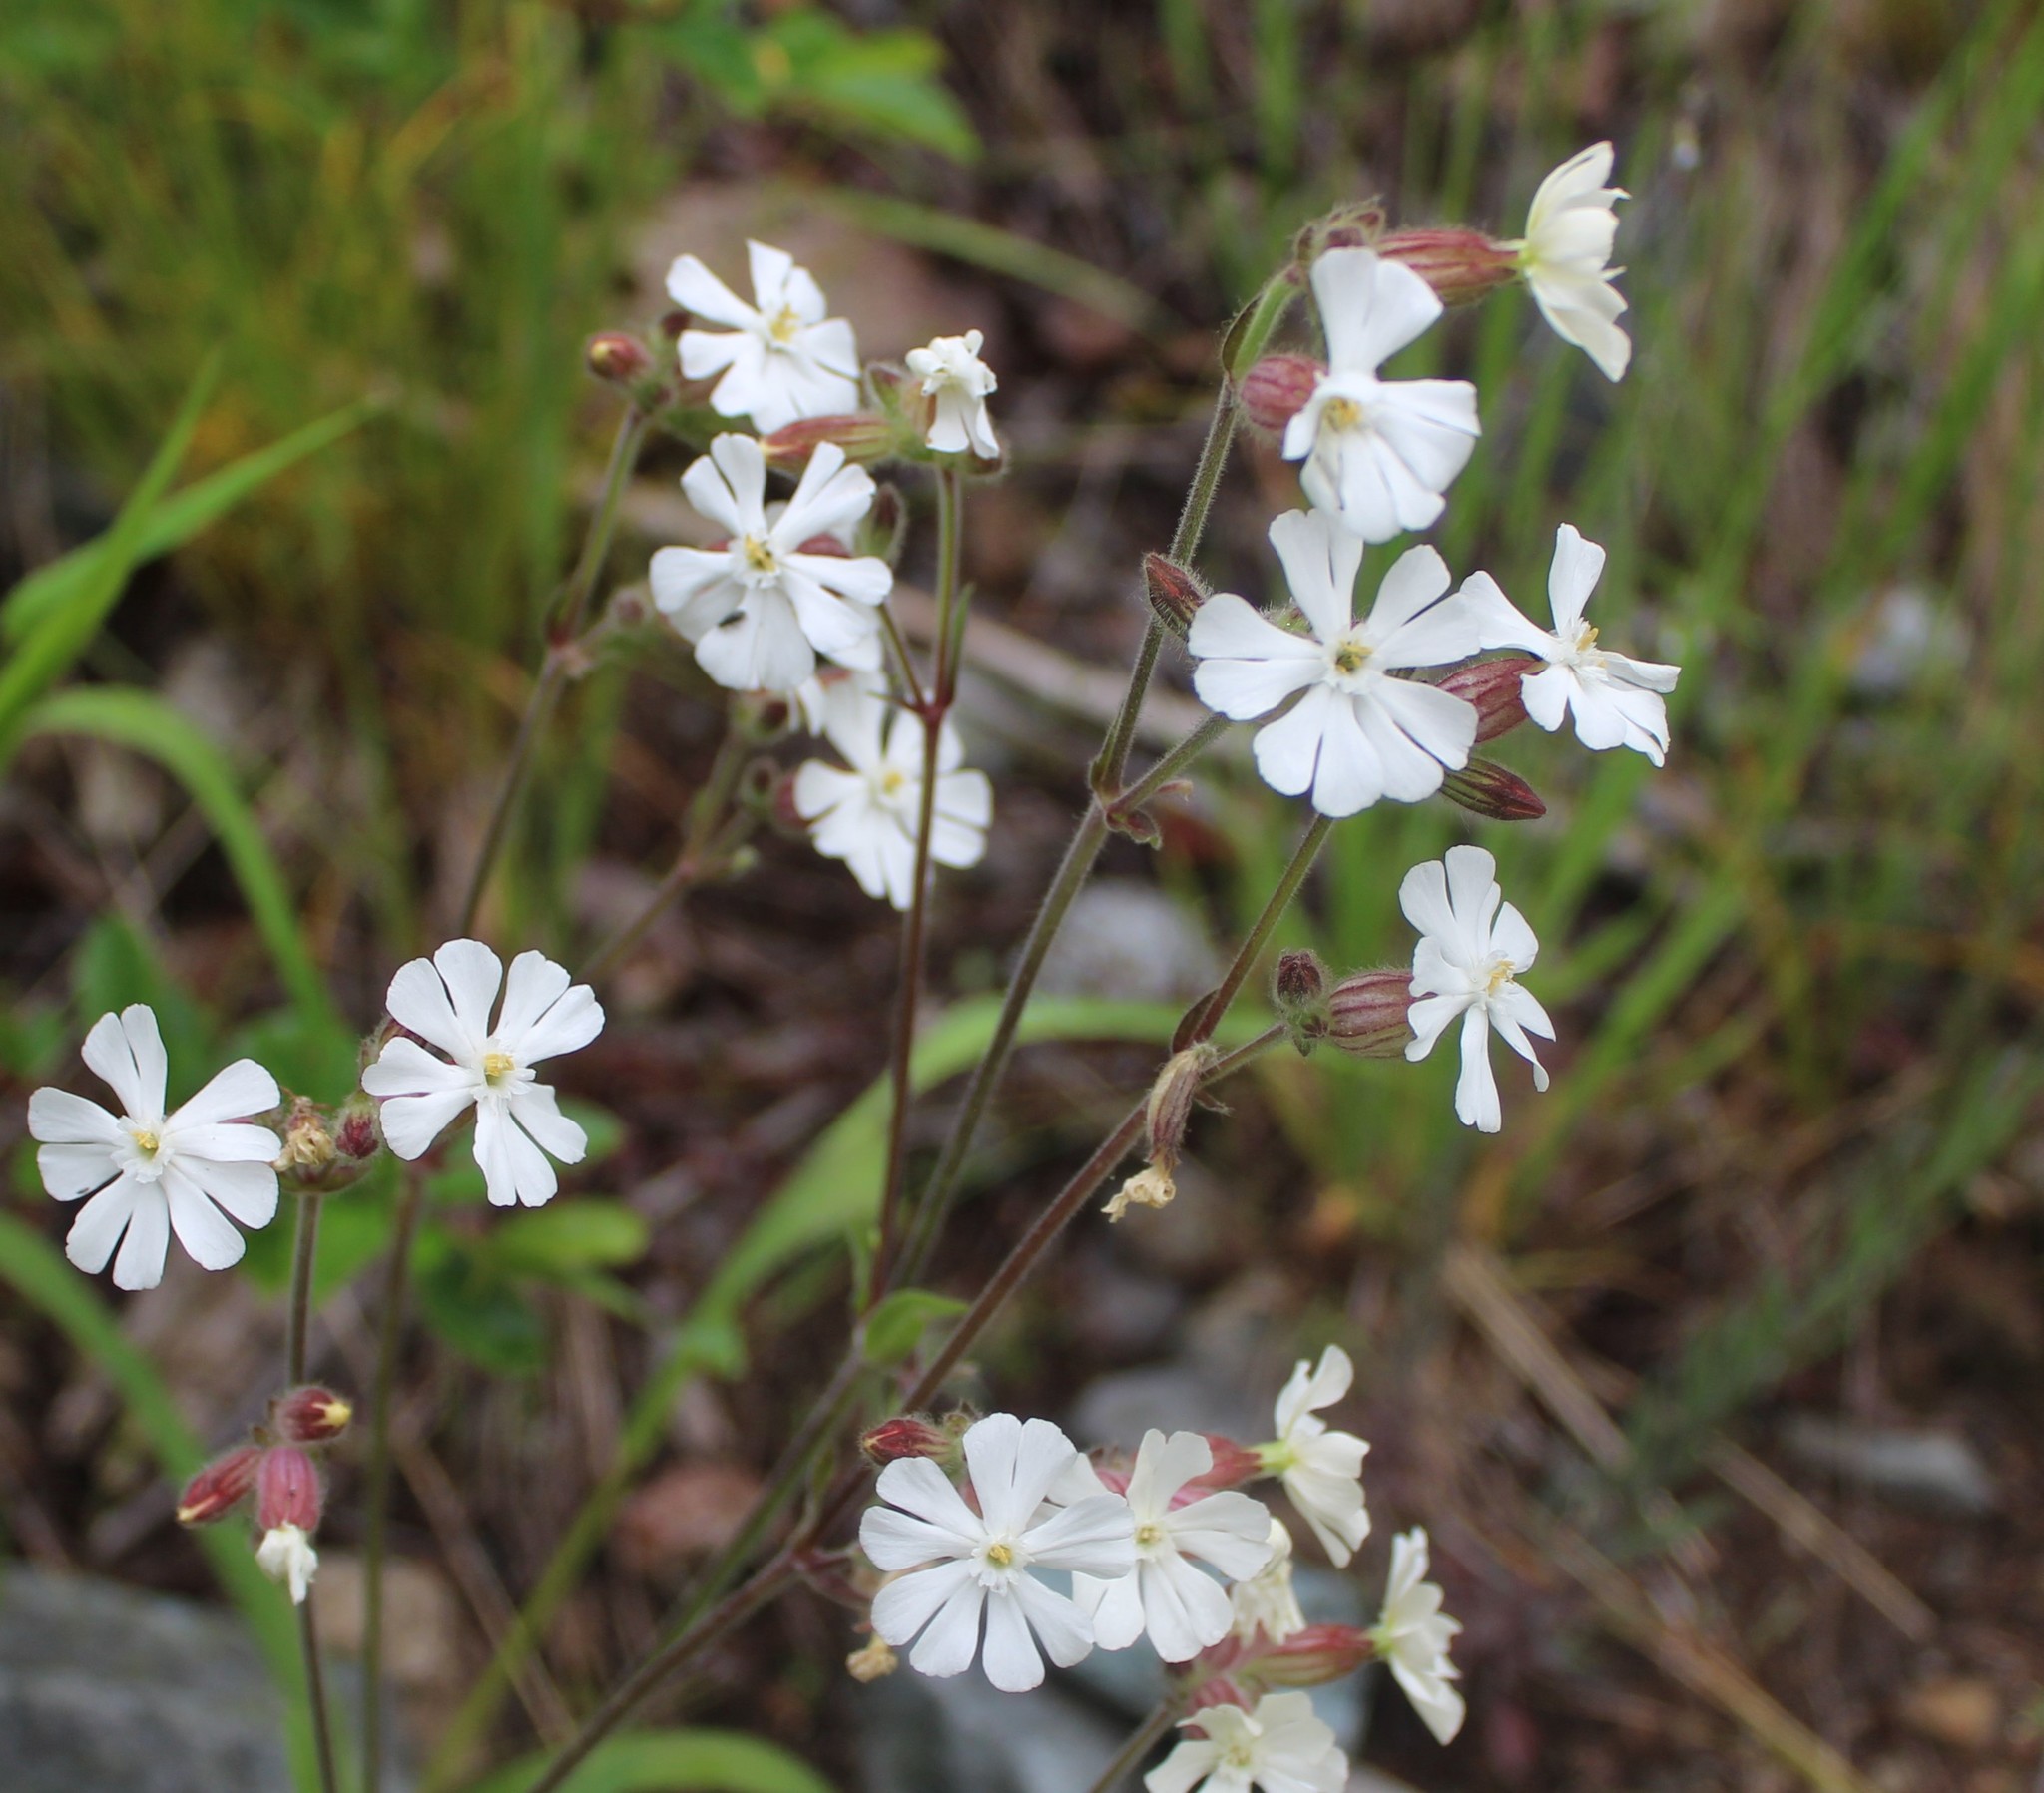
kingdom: Plantae
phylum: Tracheophyta
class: Magnoliopsida
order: Caryophyllales
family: Caryophyllaceae
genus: Silene
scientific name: Silene latifolia
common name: White campion
